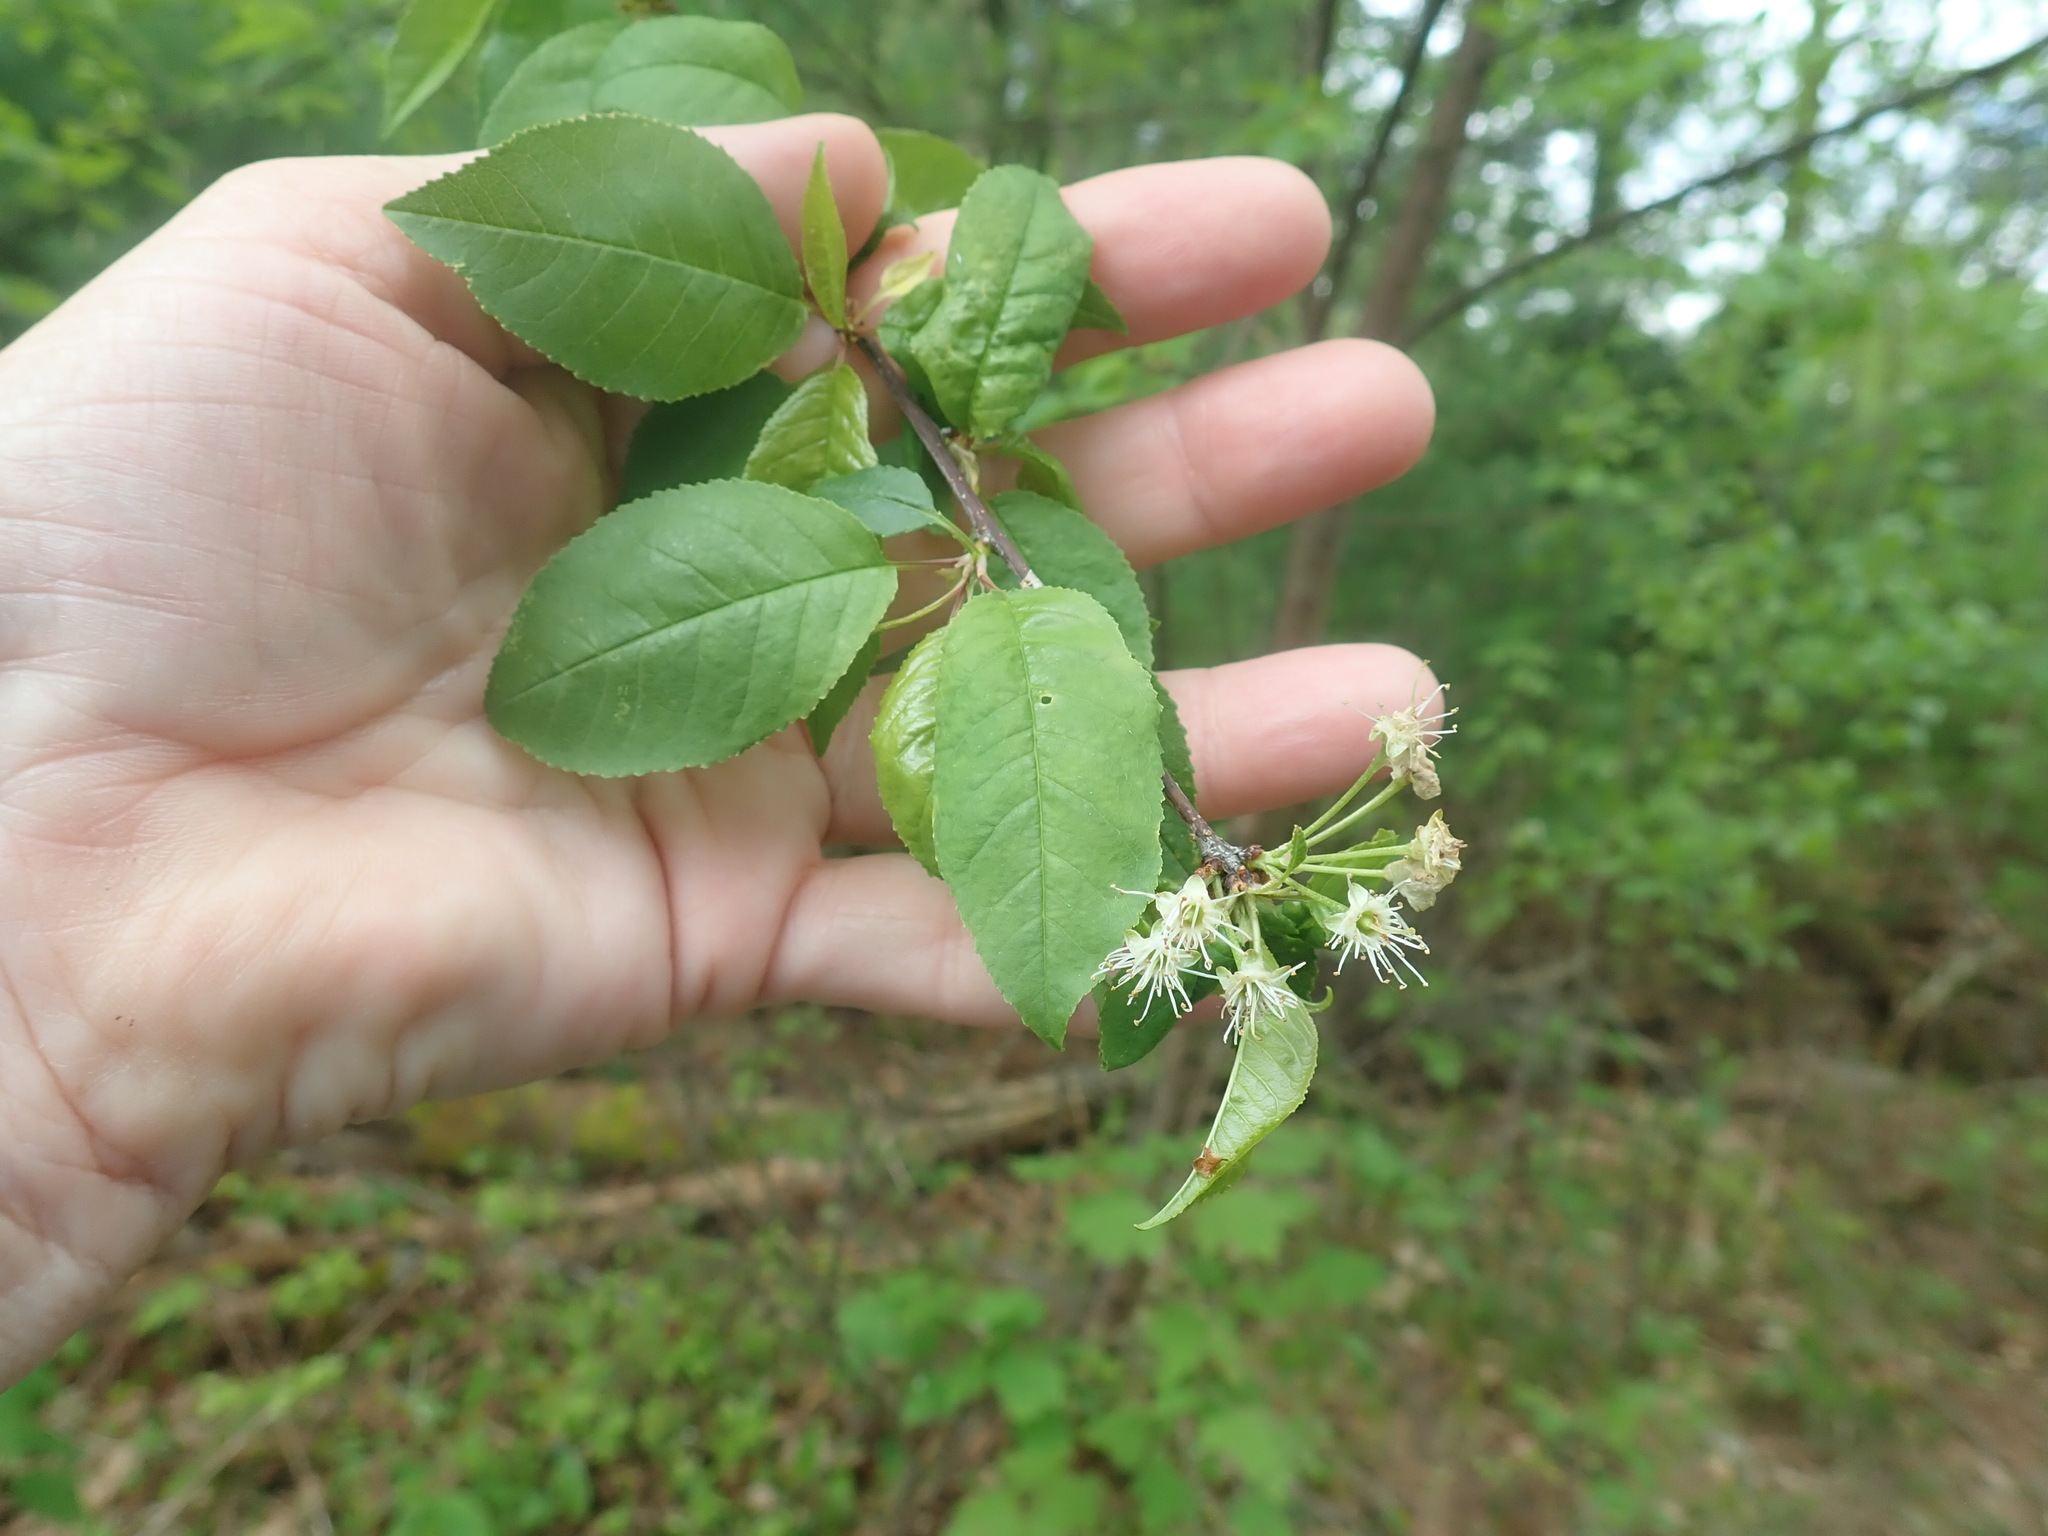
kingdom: Plantae
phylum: Tracheophyta
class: Magnoliopsida
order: Rosales
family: Rosaceae
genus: Prunus
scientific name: Prunus pensylvanica
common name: Pin cherry
